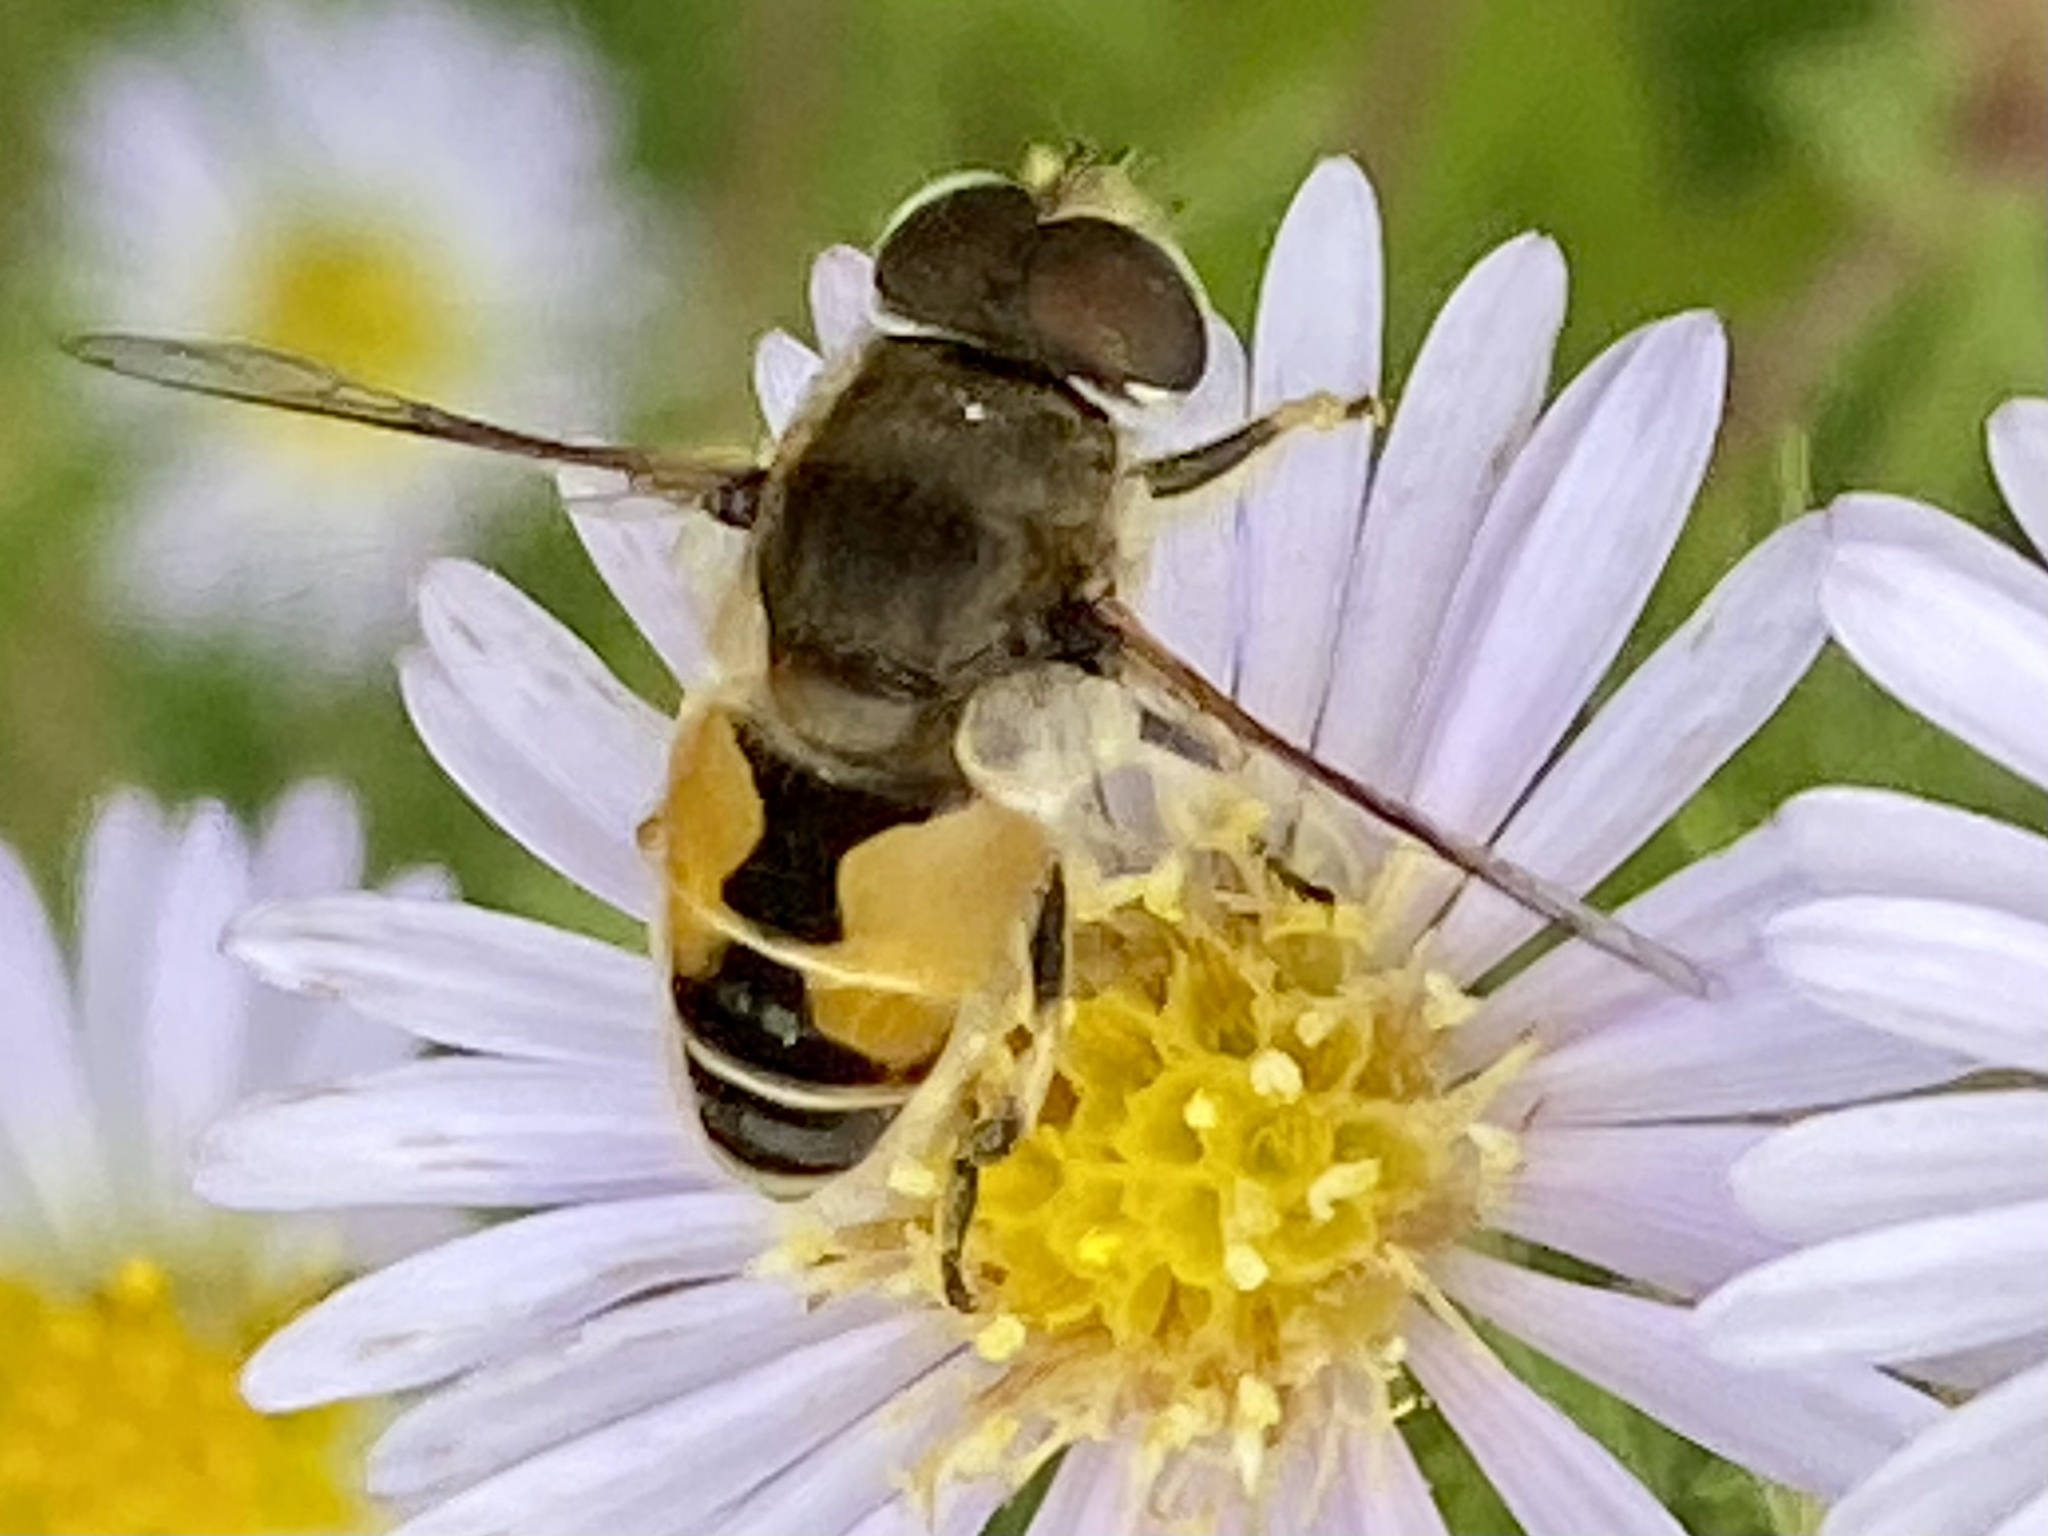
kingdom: Animalia
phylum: Arthropoda
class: Insecta
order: Diptera
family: Syrphidae
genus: Eristalis
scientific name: Eristalis arbustorum
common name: Hover fly
